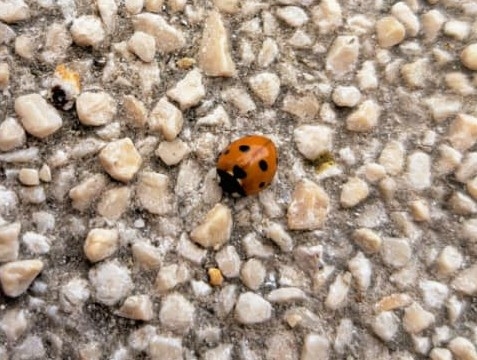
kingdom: Animalia
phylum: Arthropoda
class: Insecta
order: Coleoptera
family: Coccinellidae
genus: Coccinella
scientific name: Coccinella septempunctata
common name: Sevenspotted lady beetle
